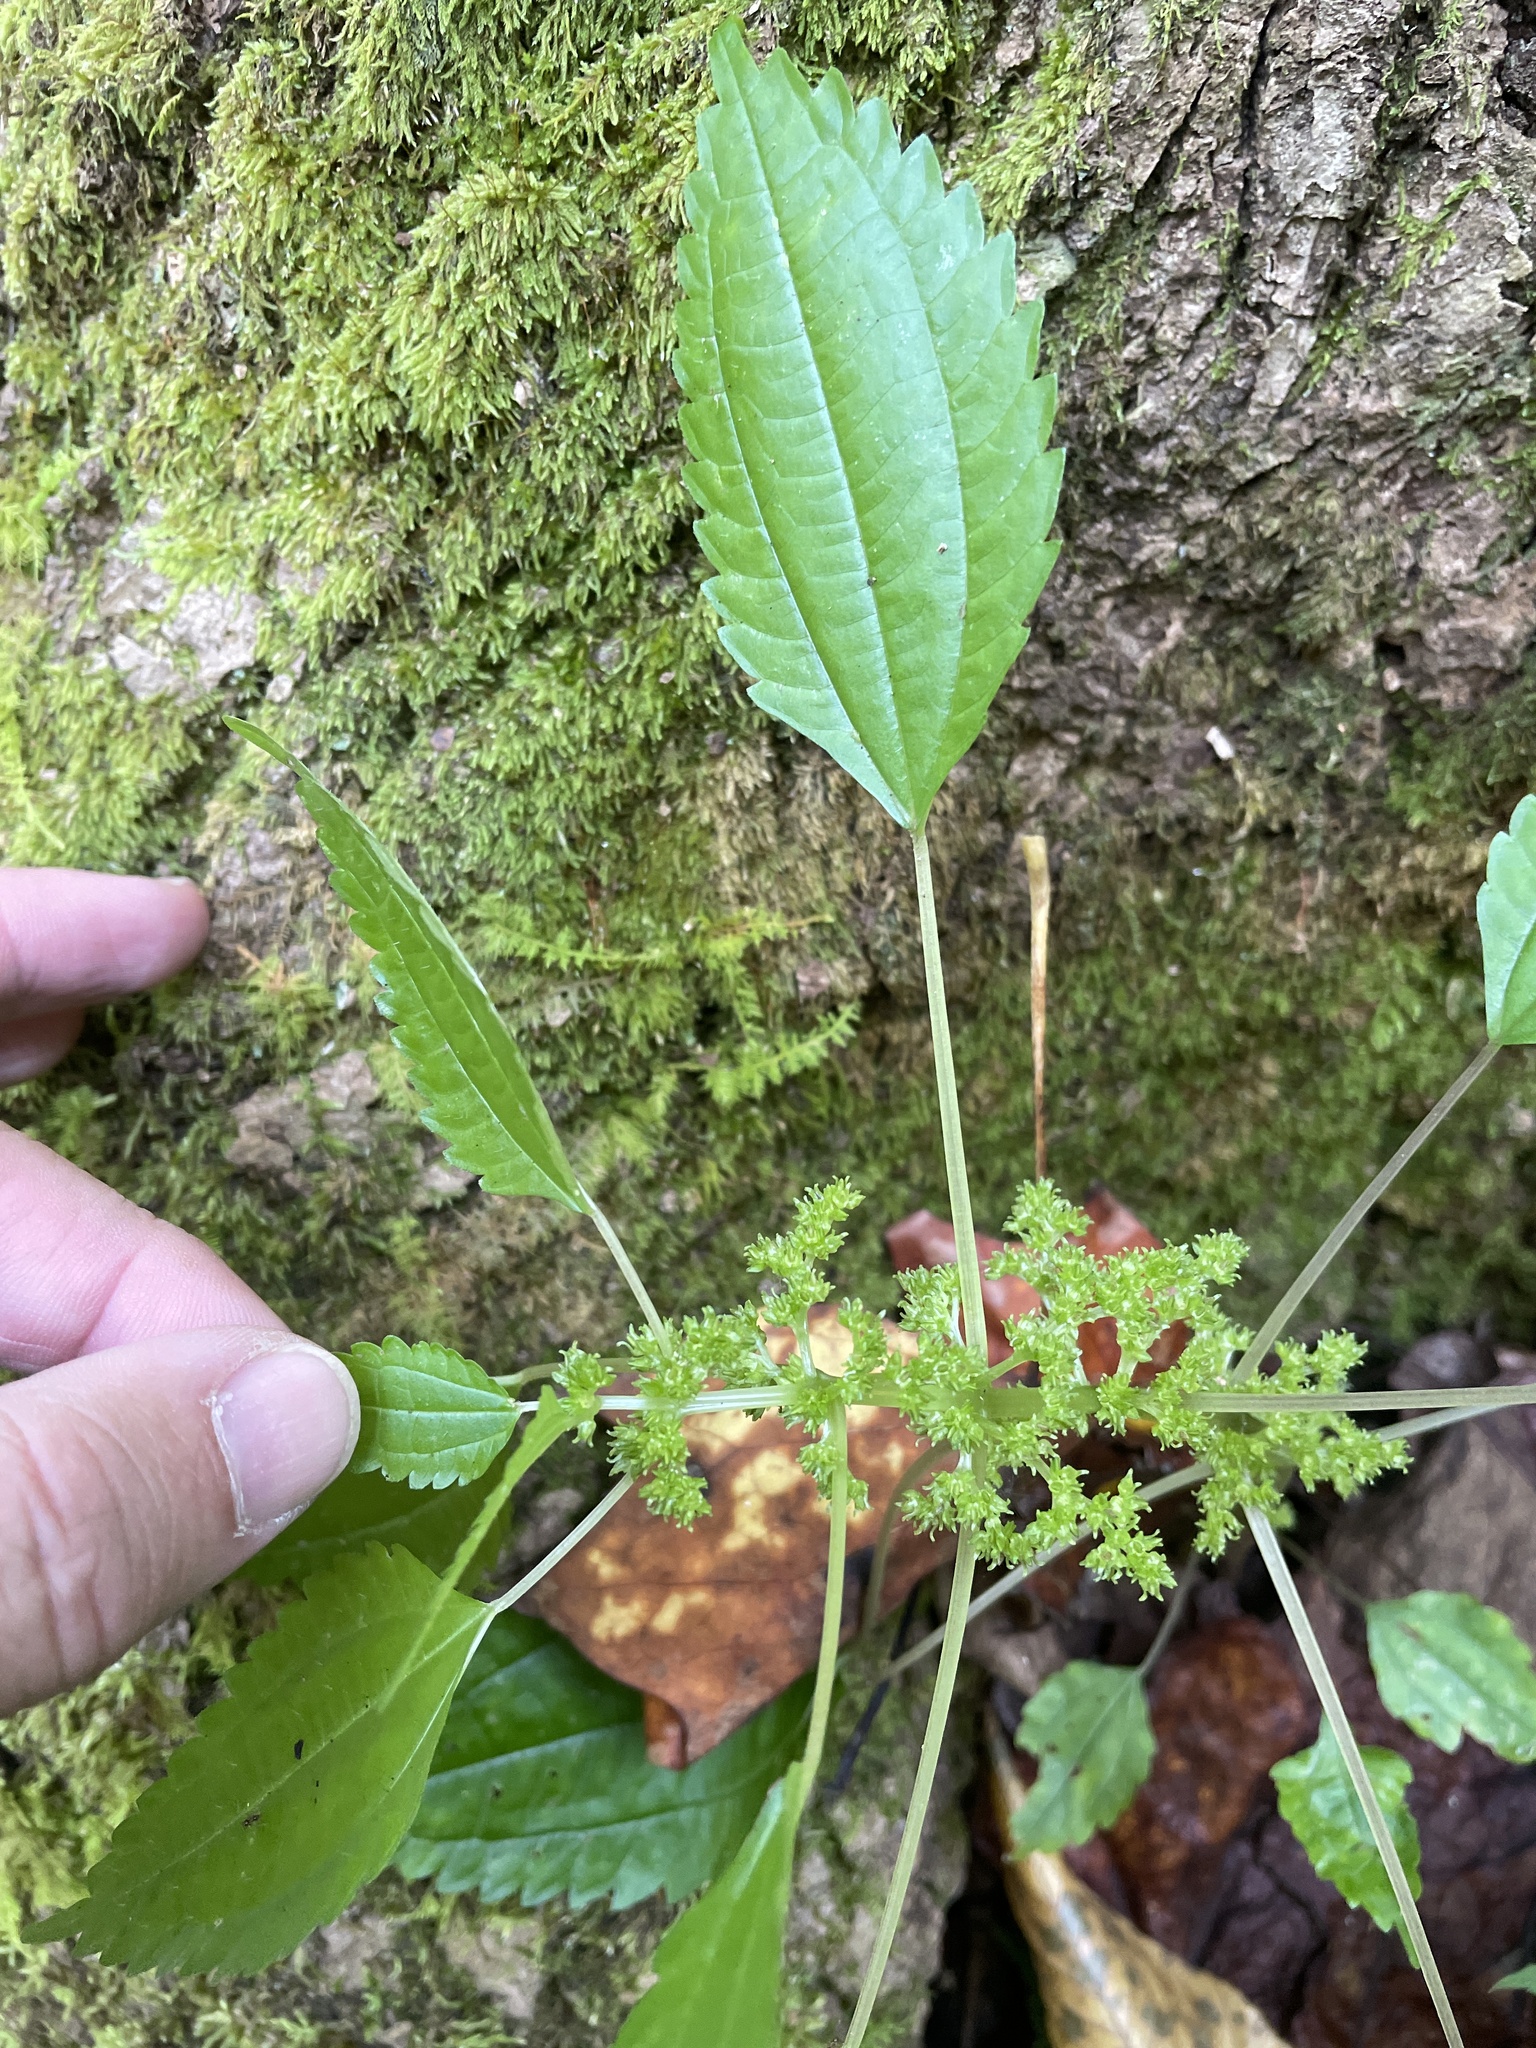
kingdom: Plantae
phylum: Tracheophyta
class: Magnoliopsida
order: Rosales
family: Urticaceae
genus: Pilea
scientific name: Pilea pumila
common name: Clearweed
